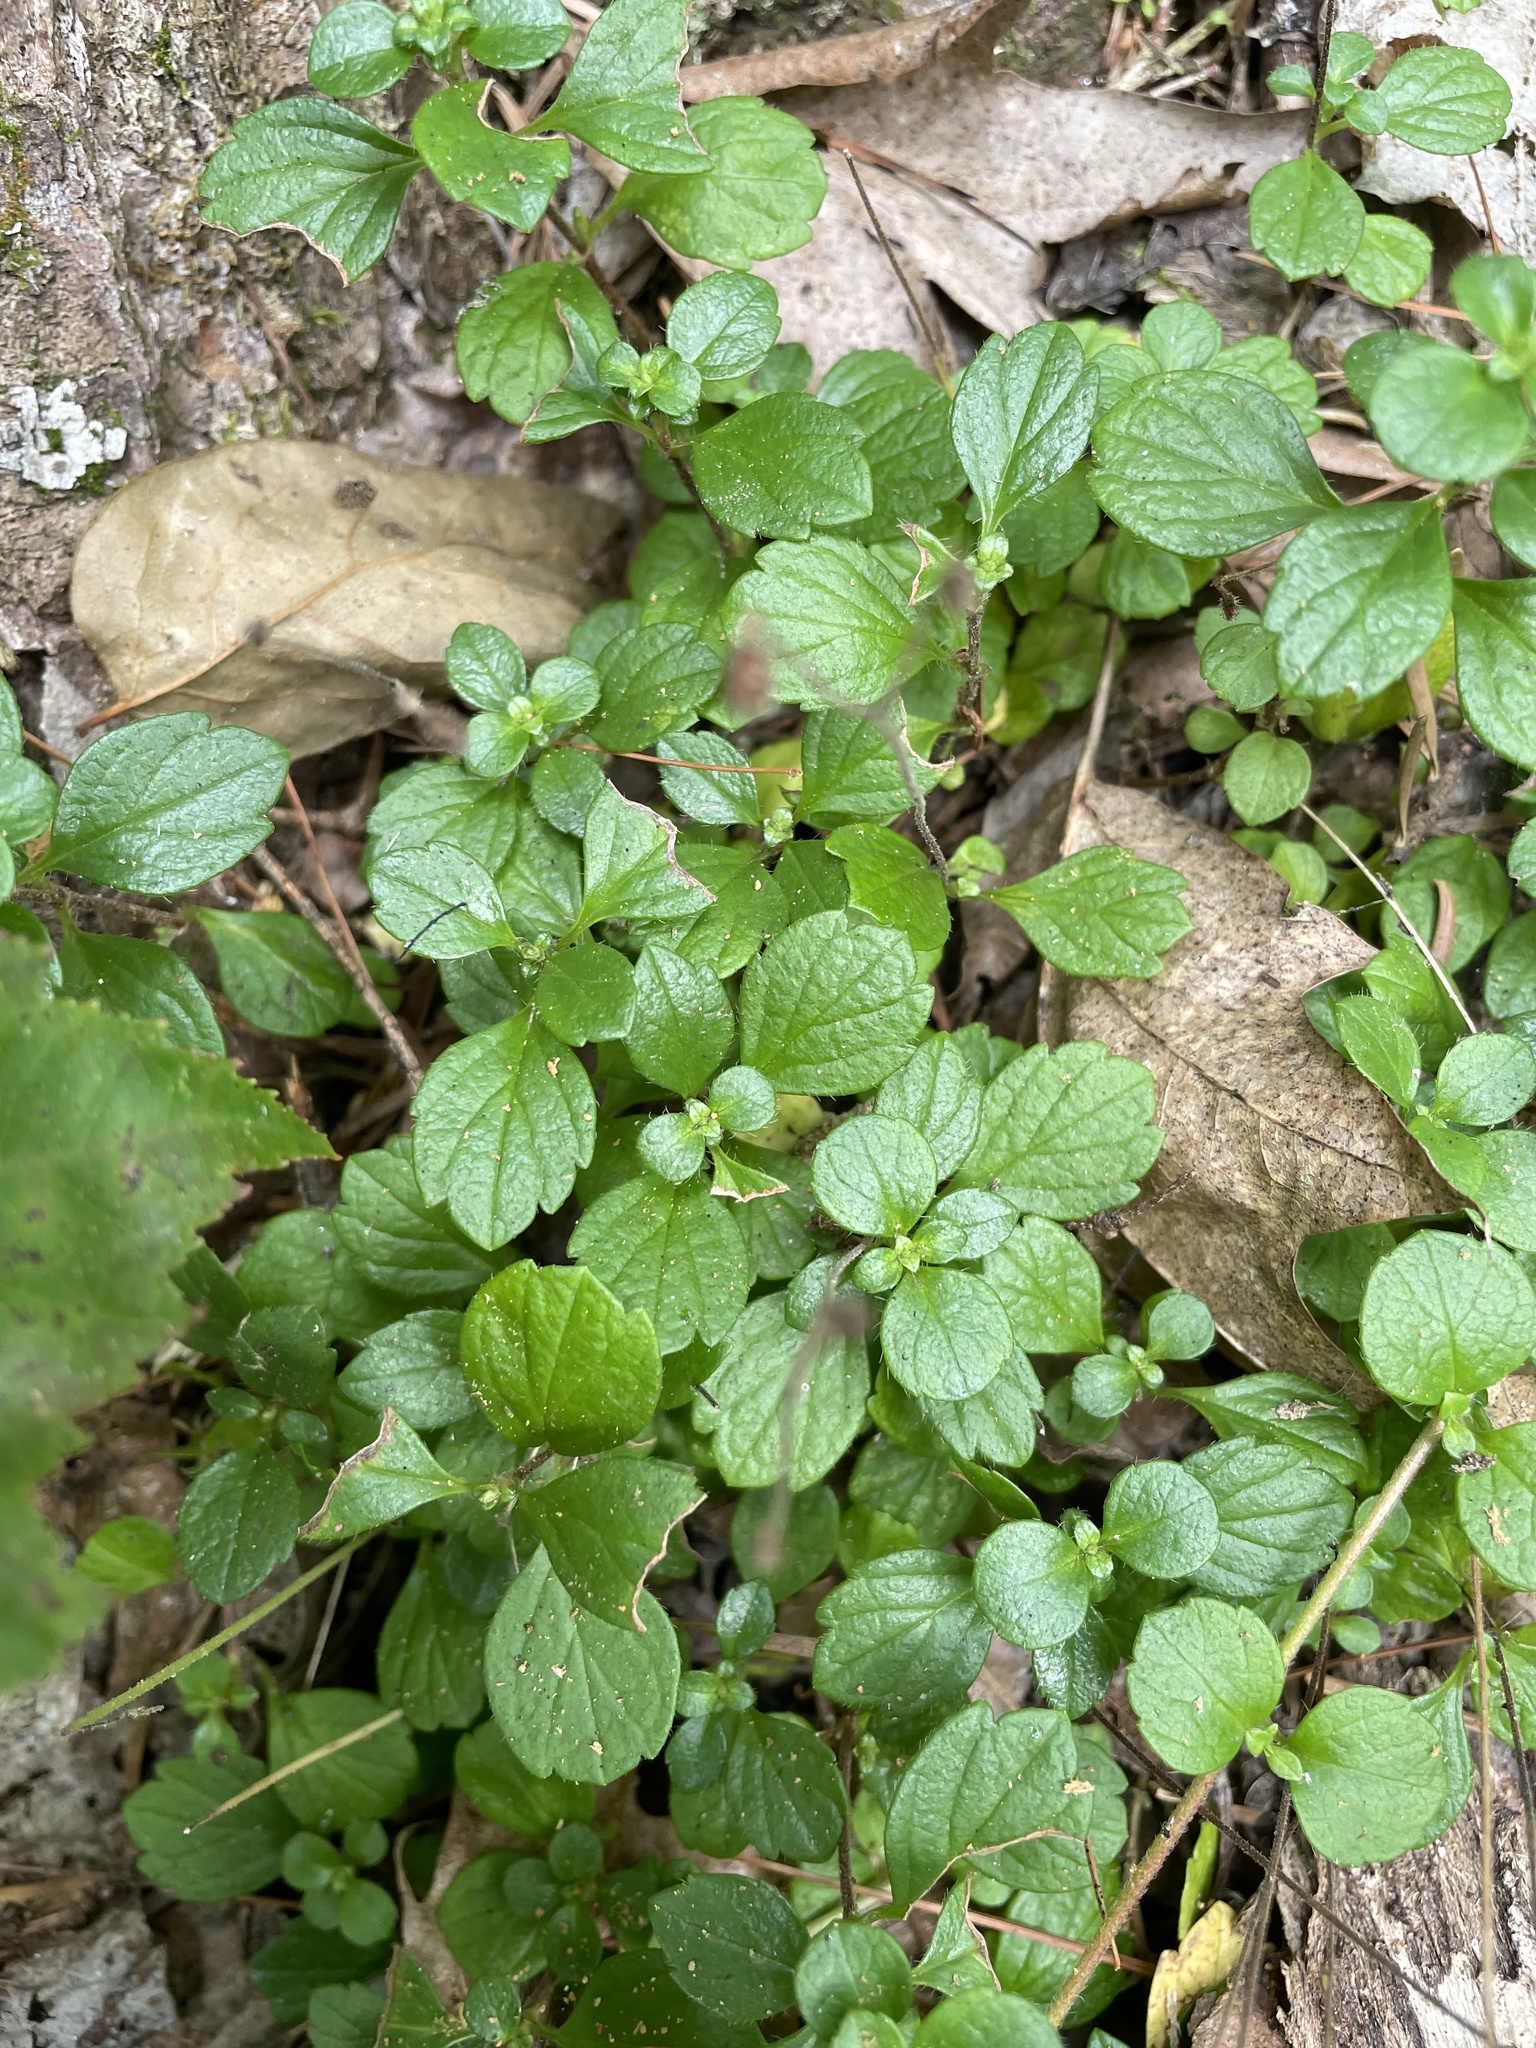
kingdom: Plantae
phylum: Tracheophyta
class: Magnoliopsida
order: Dipsacales
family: Caprifoliaceae
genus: Linnaea
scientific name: Linnaea borealis
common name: Twinflower
